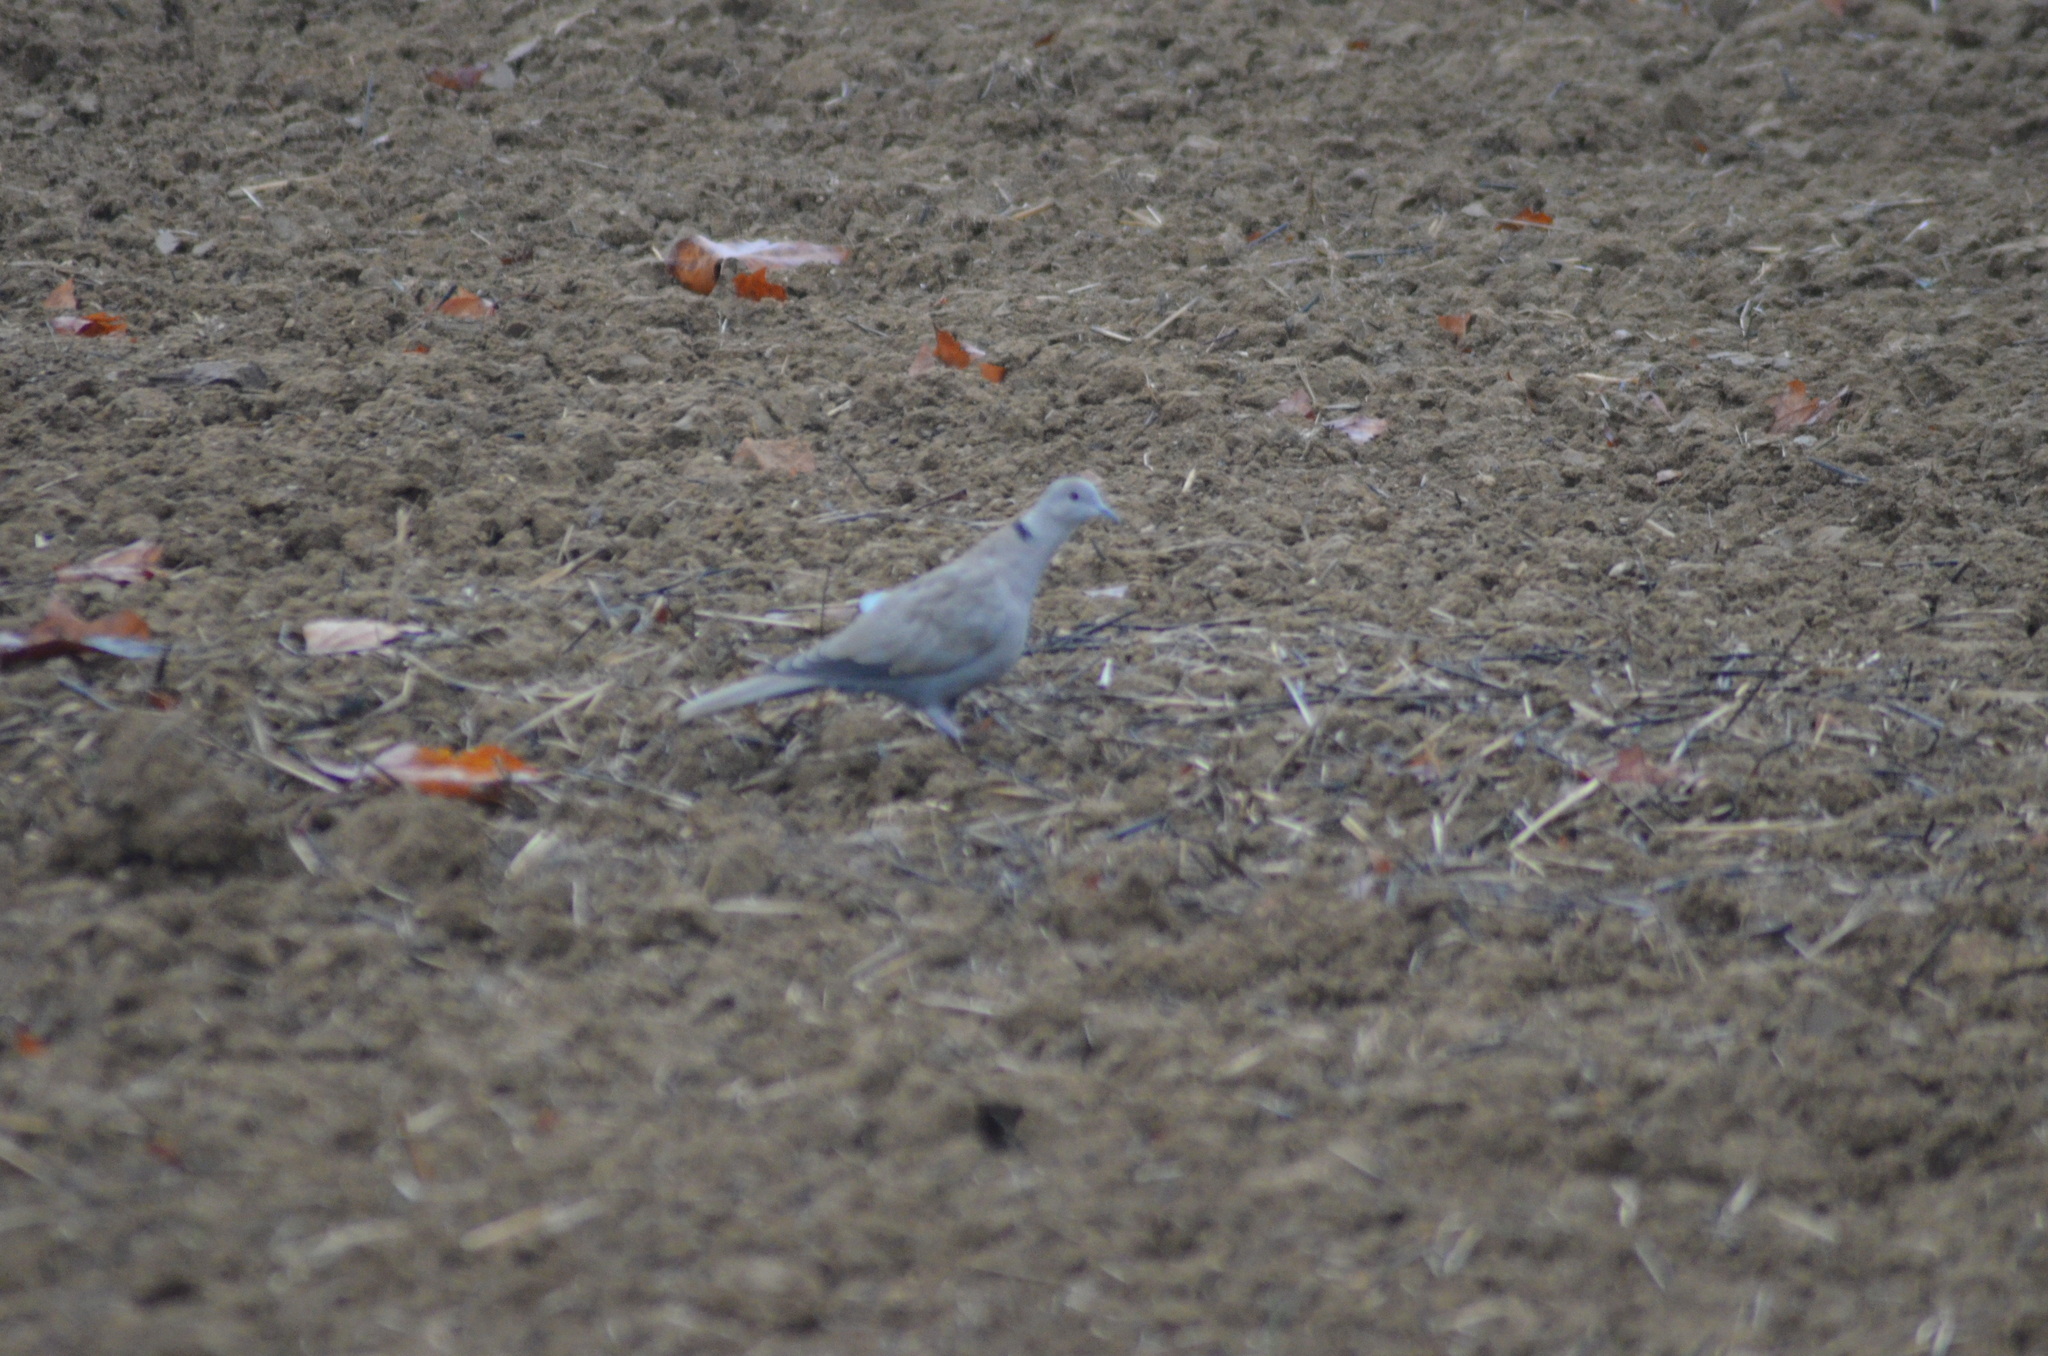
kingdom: Animalia
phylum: Chordata
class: Aves
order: Columbiformes
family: Columbidae
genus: Streptopelia
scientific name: Streptopelia decaocto
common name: Eurasian collared dove
